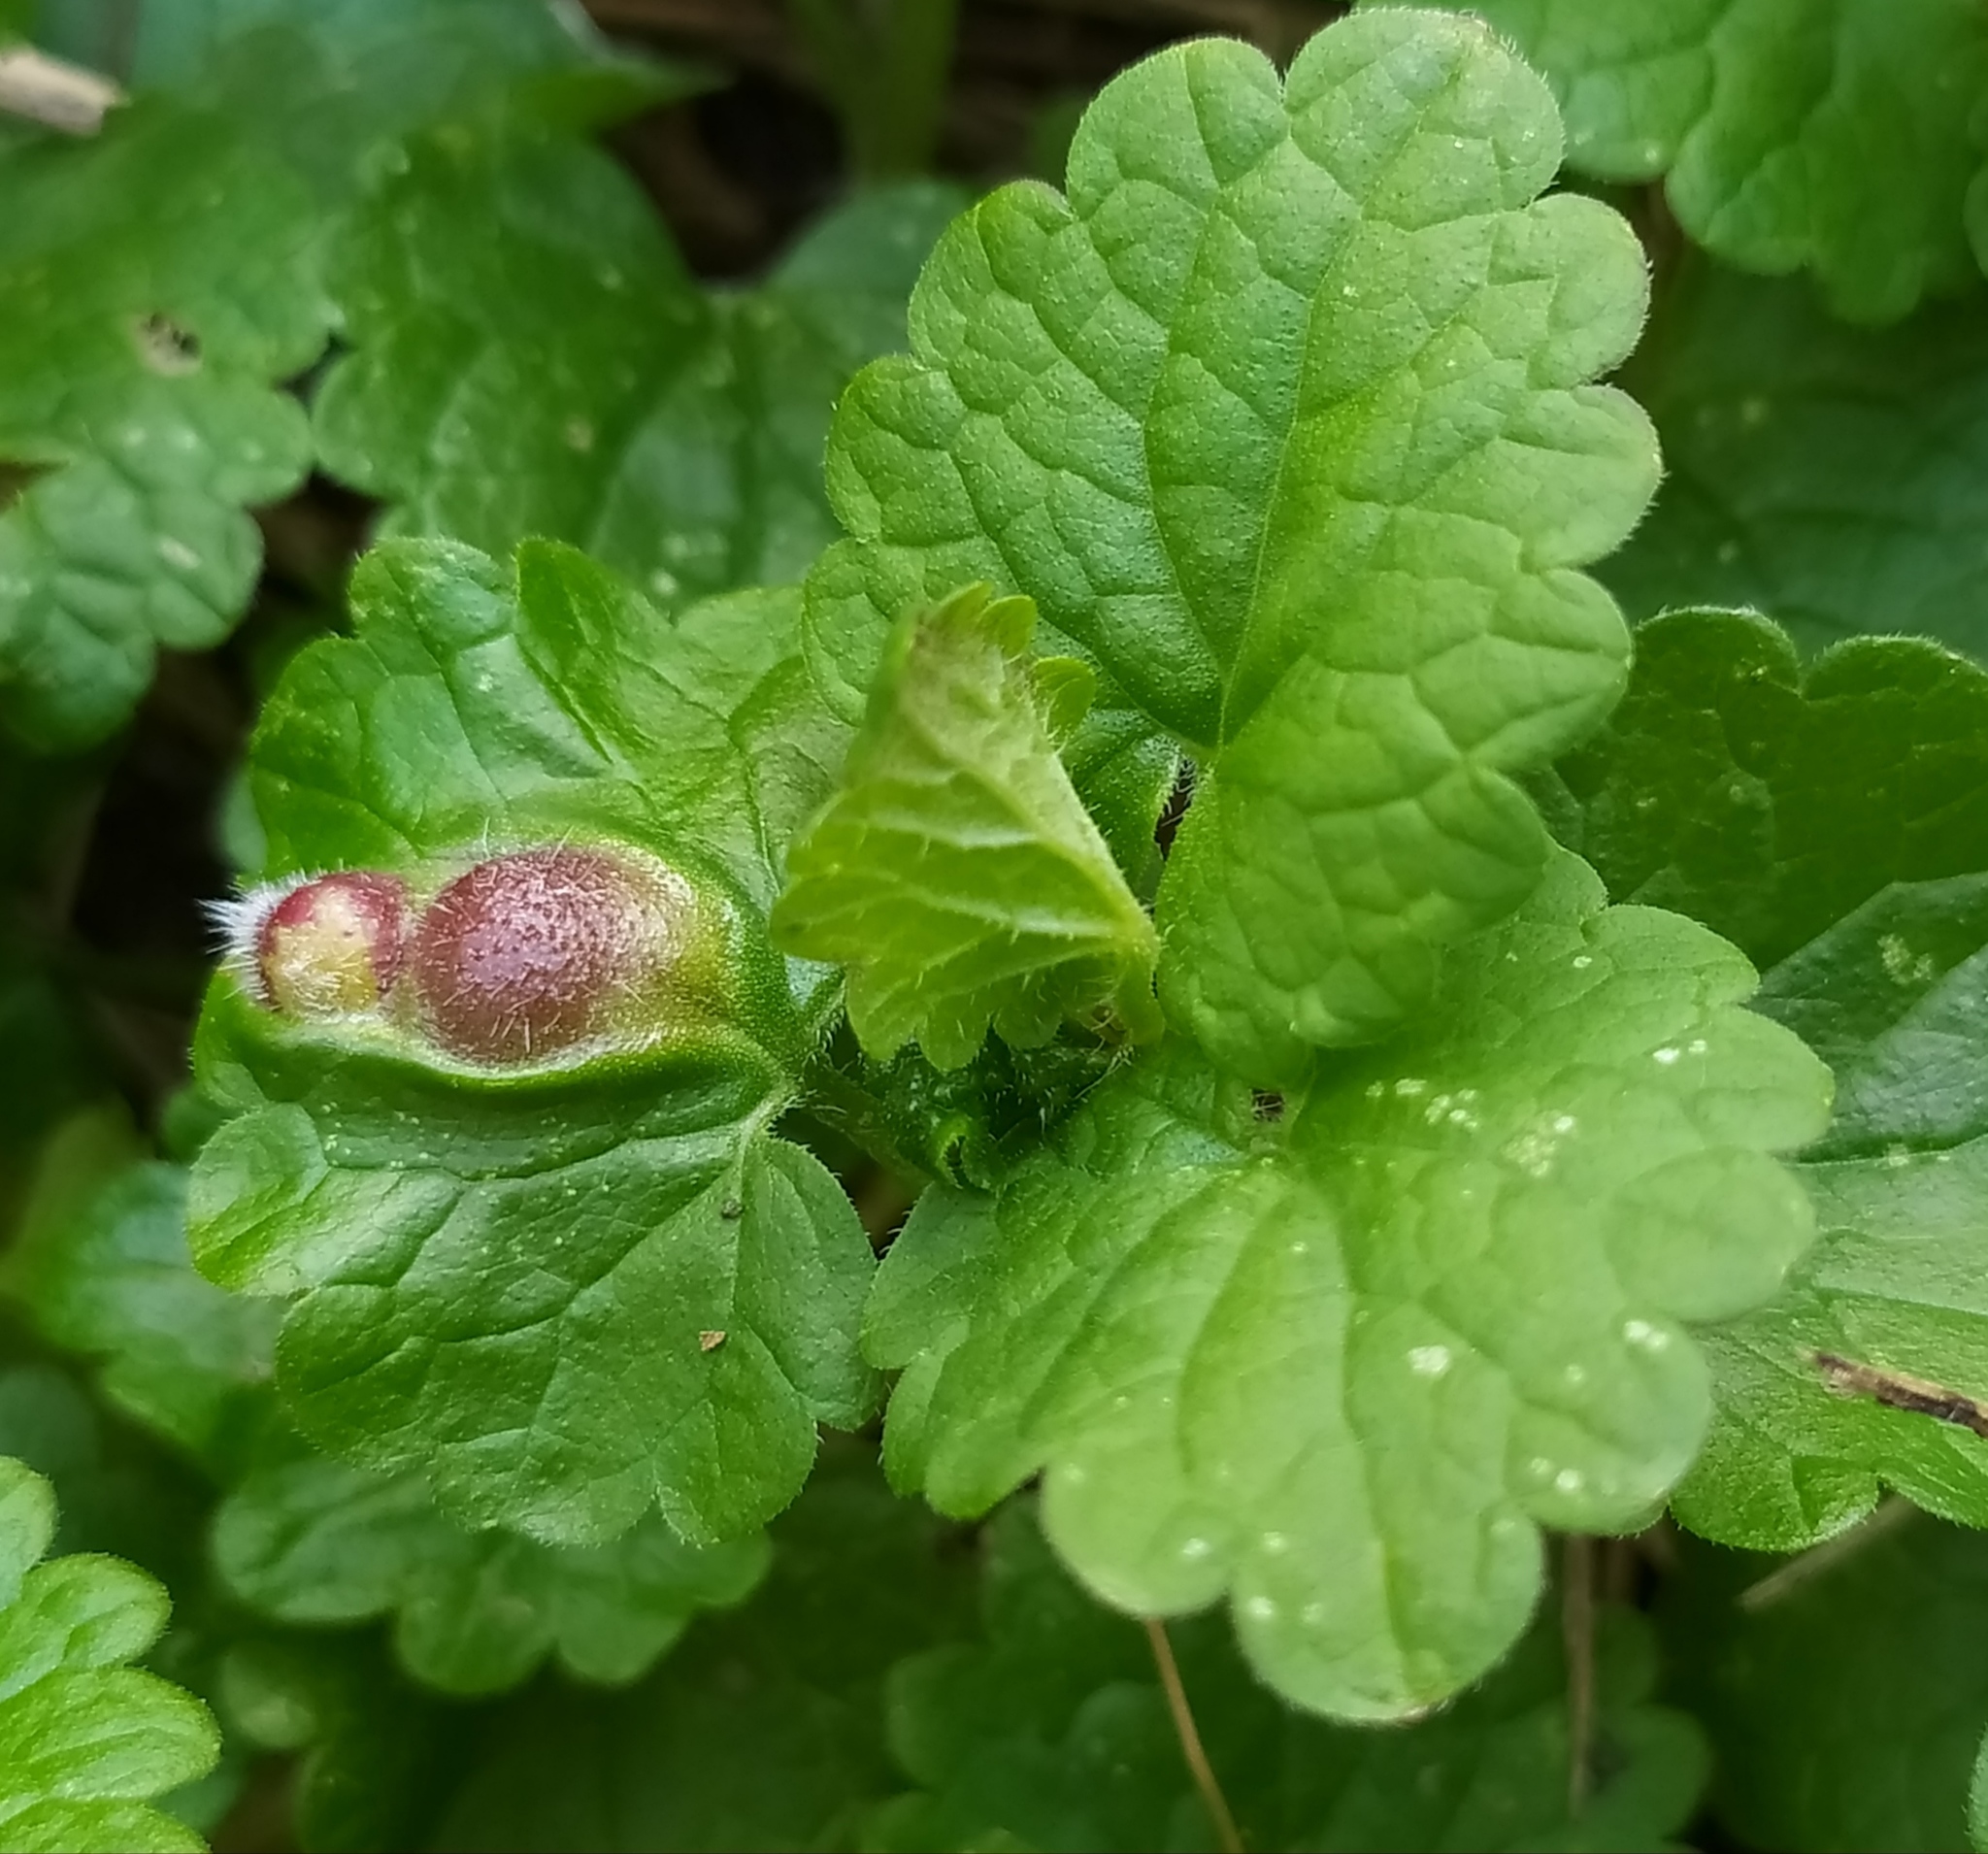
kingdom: Animalia
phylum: Arthropoda
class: Insecta
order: Hymenoptera
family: Cynipidae
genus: Liposthenes
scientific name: Liposthenes glechomae
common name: Gall wasp
